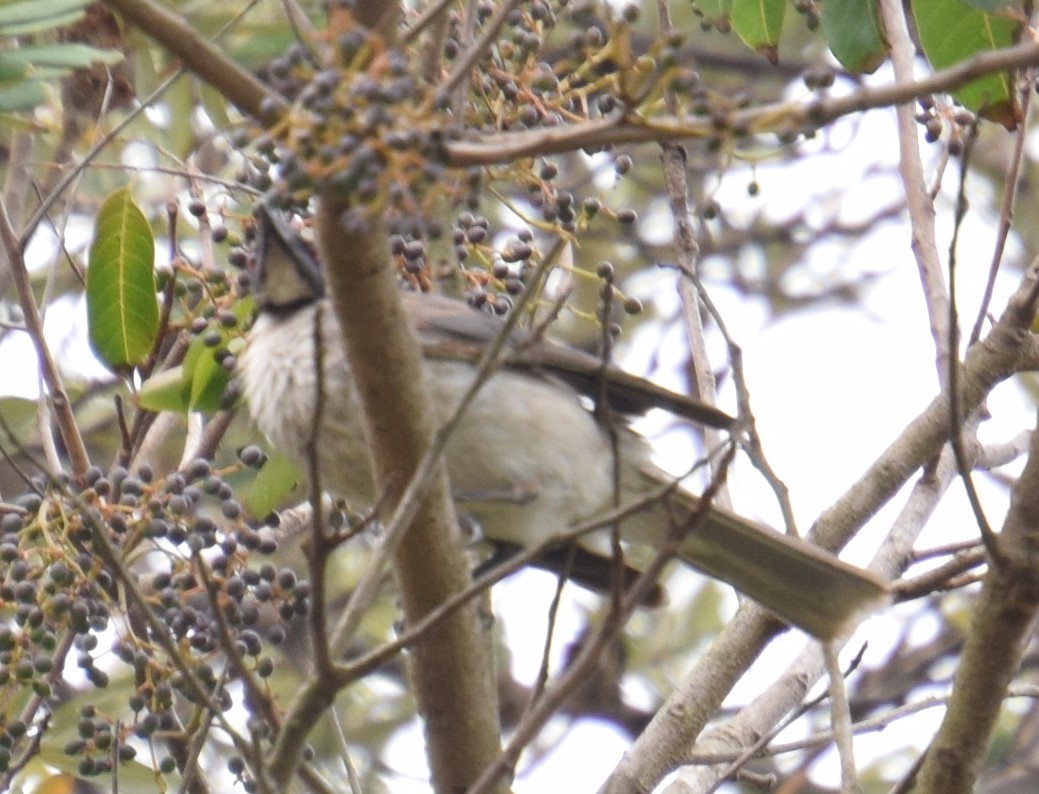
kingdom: Animalia
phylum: Chordata
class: Aves
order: Passeriformes
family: Meliphagidae
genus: Philemon
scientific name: Philemon corniculatus
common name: Noisy friarbird
